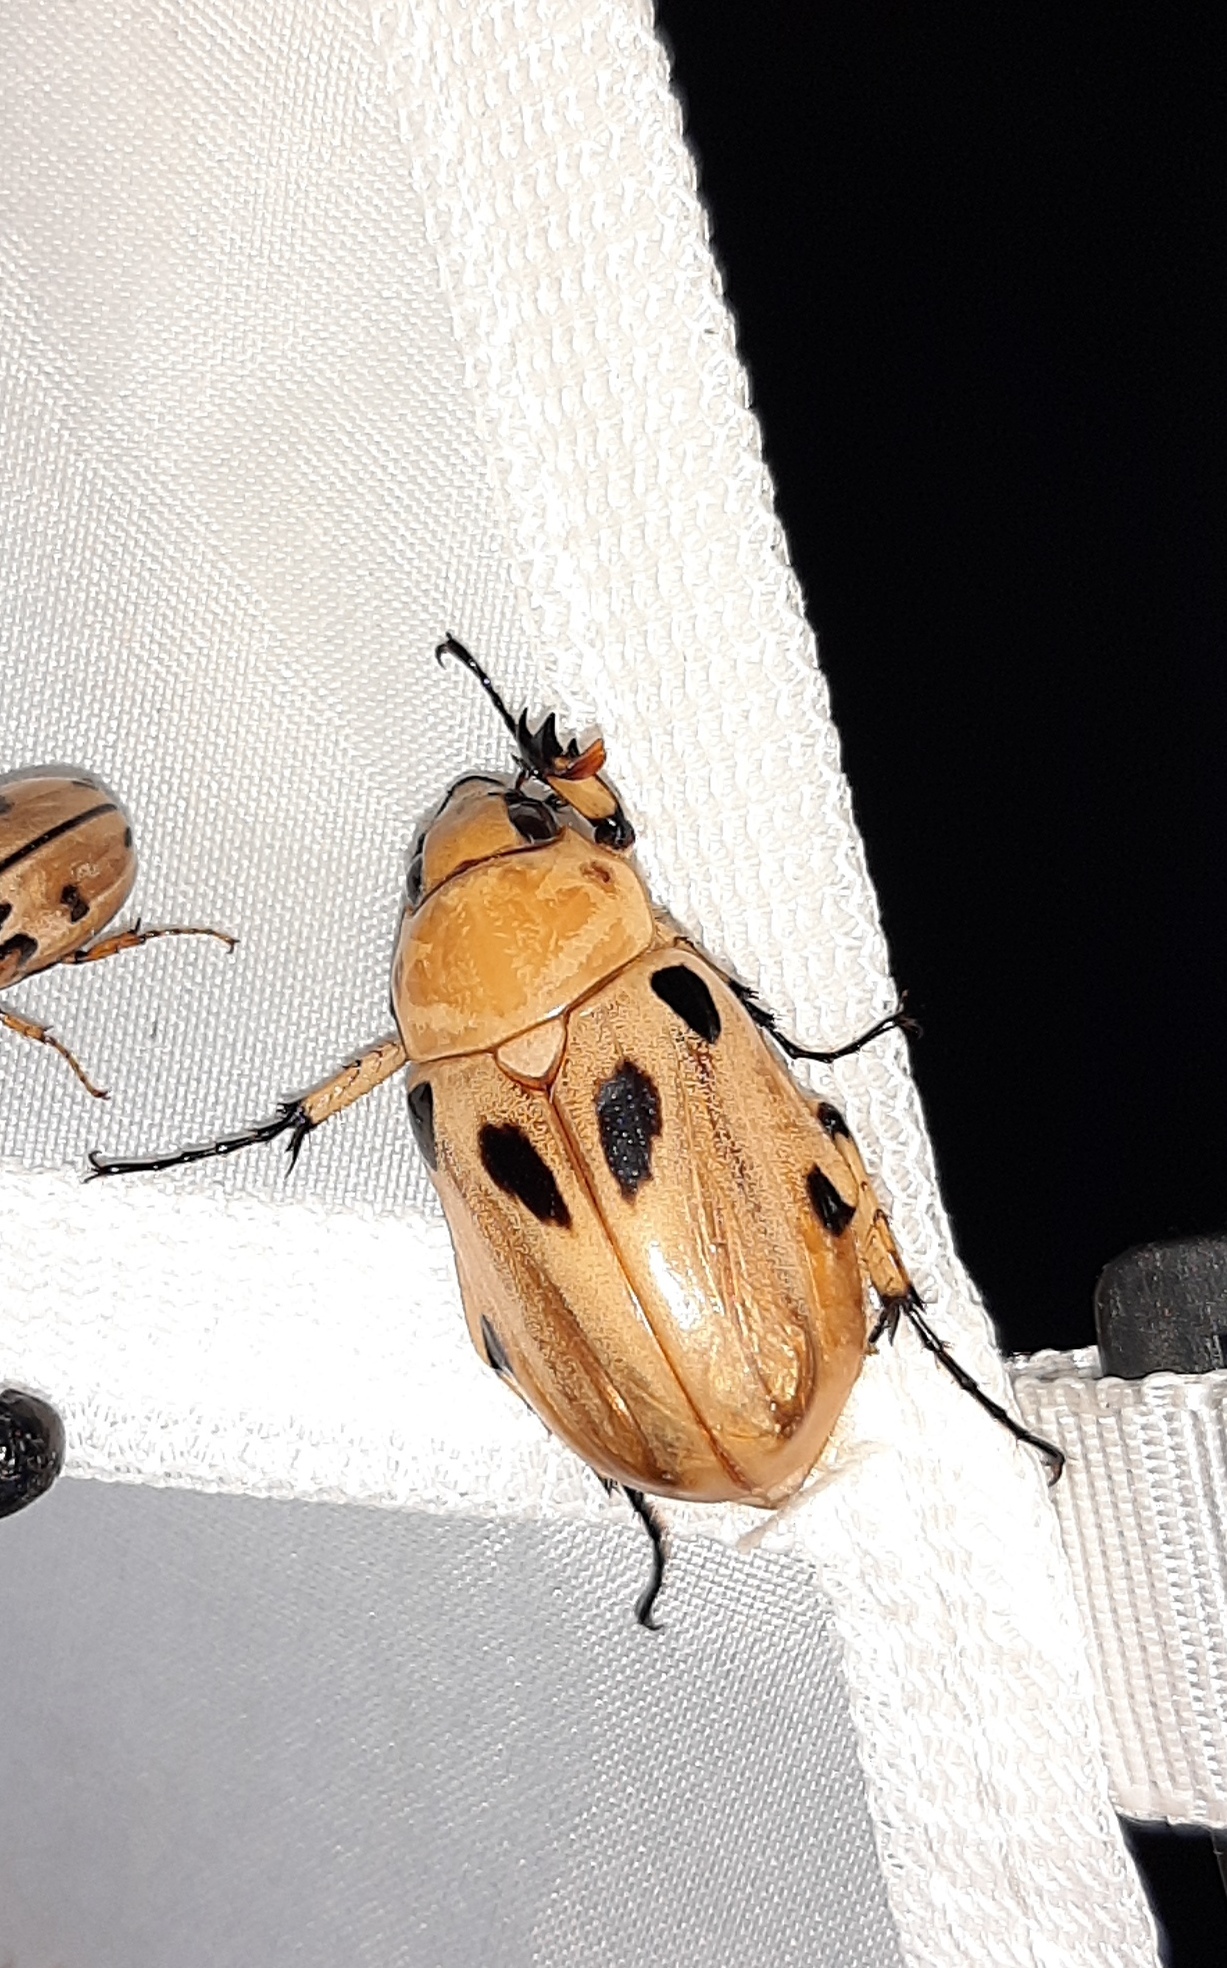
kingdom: Animalia
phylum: Arthropoda
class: Insecta
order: Coleoptera
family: Scarabaeidae
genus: Ancognatha
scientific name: Ancognatha vulgaris
